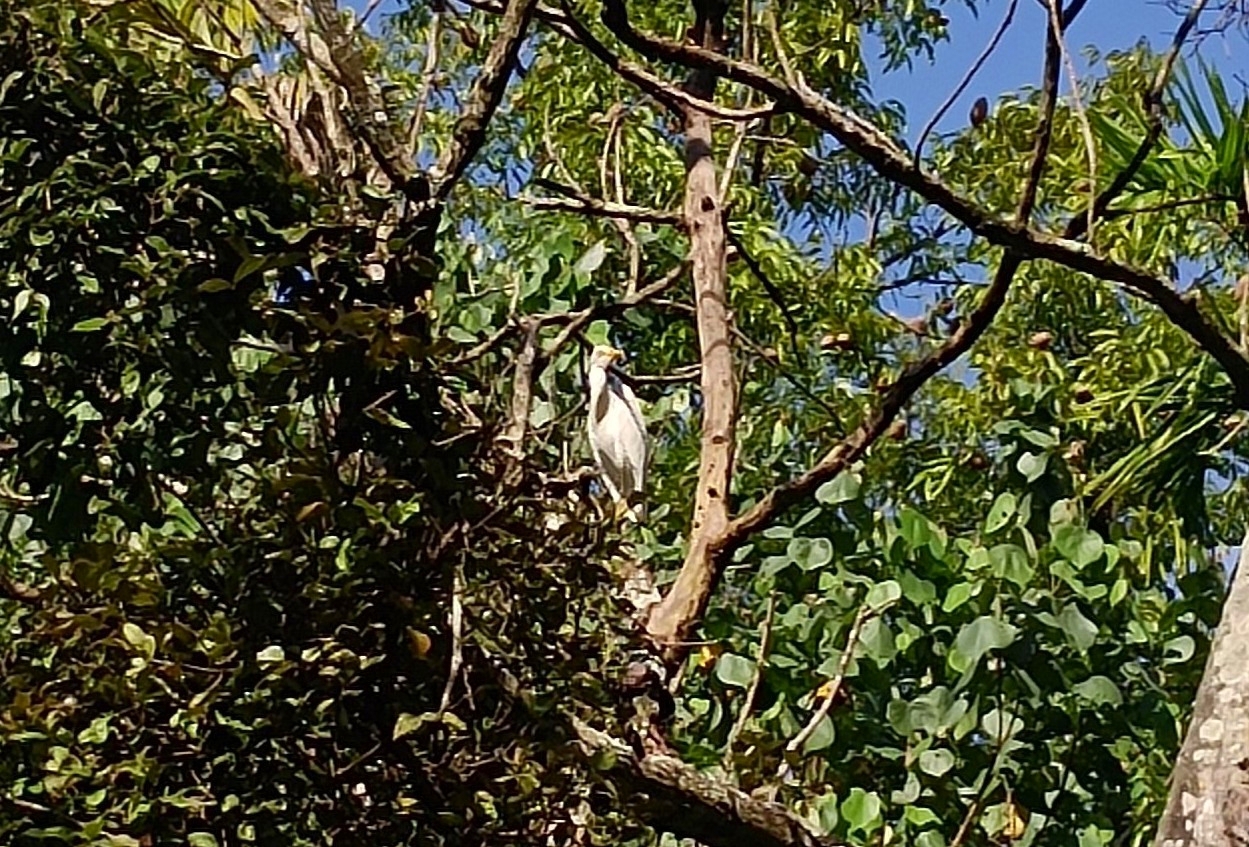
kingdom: Animalia
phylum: Chordata
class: Aves
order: Pelecaniformes
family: Ardeidae
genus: Bubulcus
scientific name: Bubulcus coromandus
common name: Eastern cattle egret
